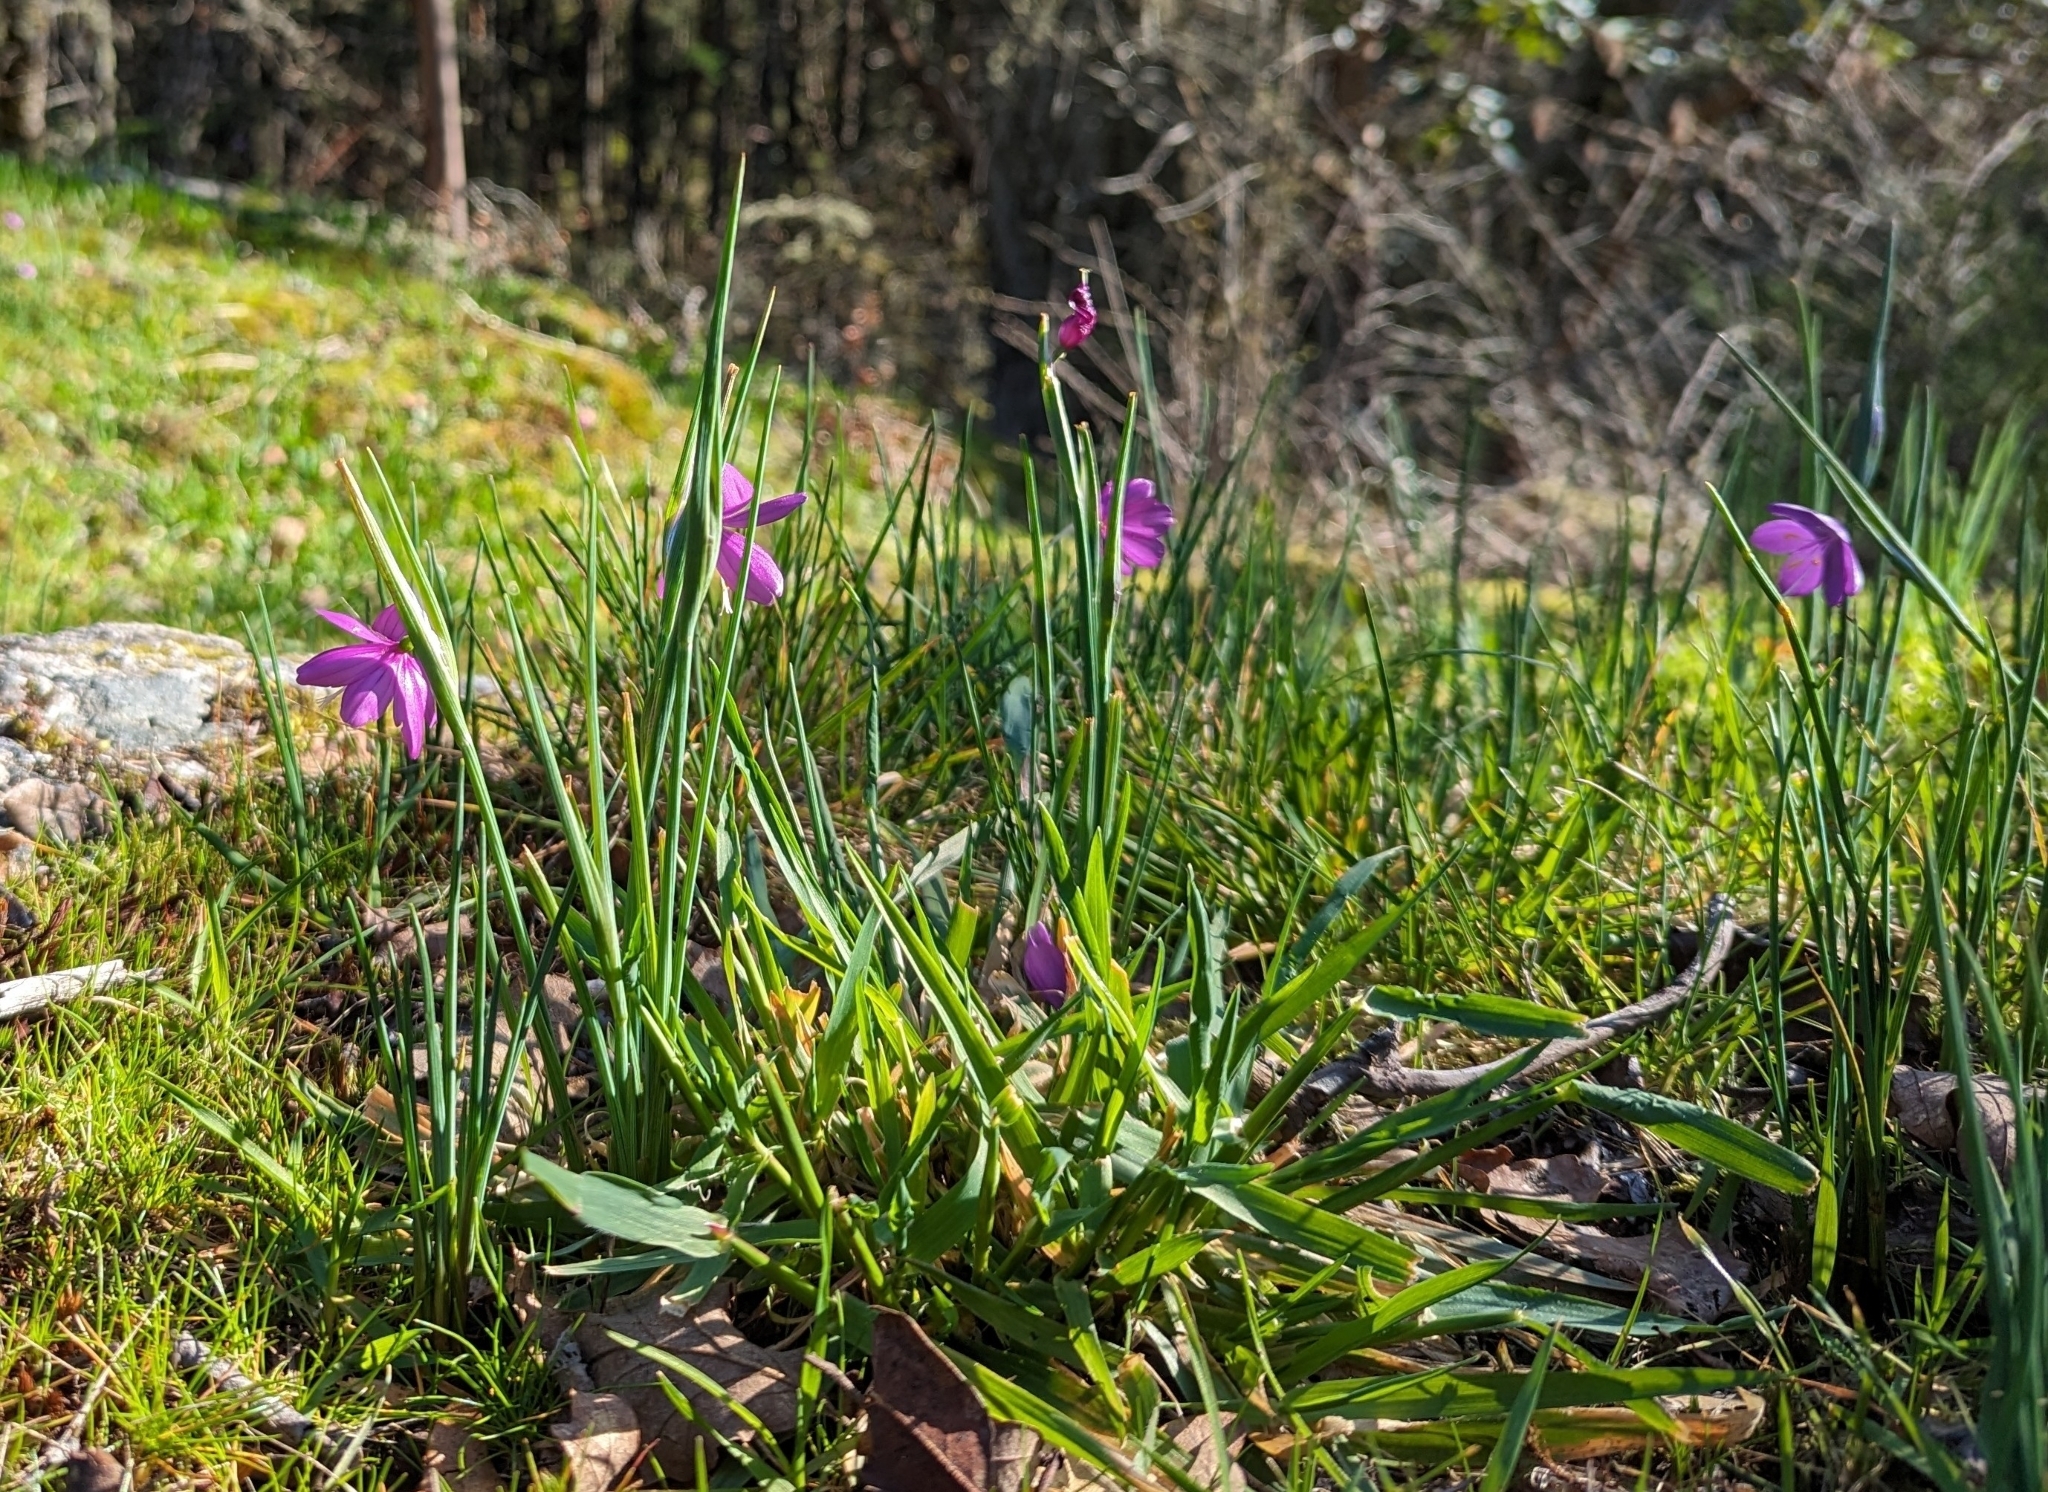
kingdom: Plantae
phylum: Tracheophyta
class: Liliopsida
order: Asparagales
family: Iridaceae
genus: Olsynium
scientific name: Olsynium douglasii
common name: Douglas' grasswidow
